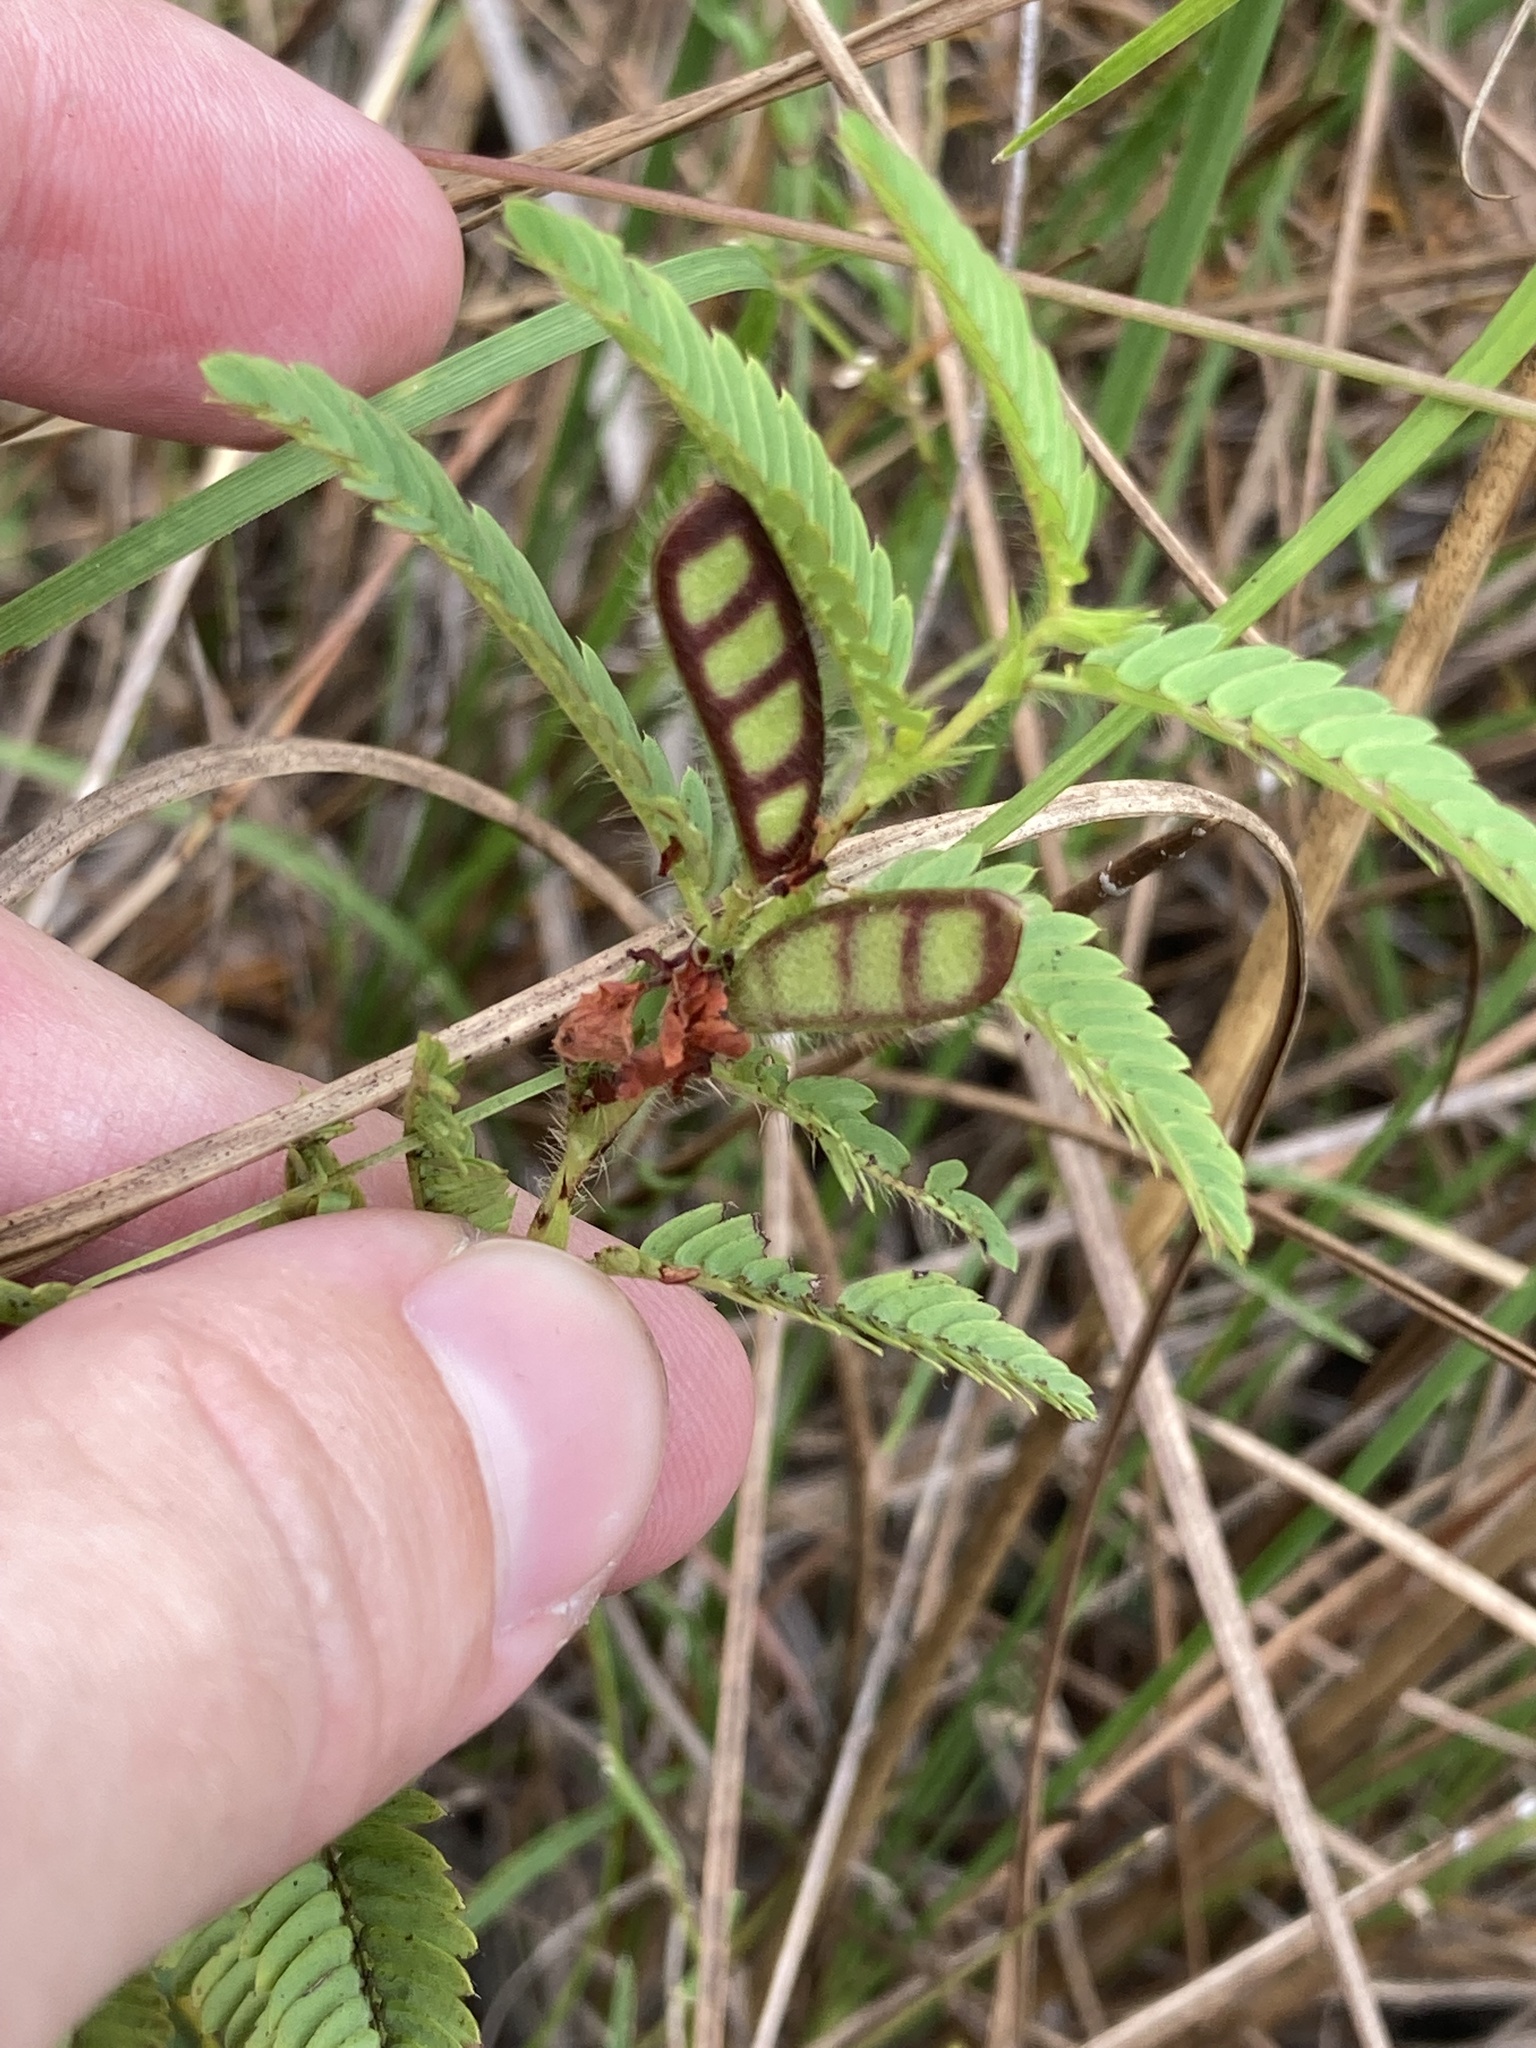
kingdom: Plantae
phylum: Tracheophyta
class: Magnoliopsida
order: Fabales
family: Fabaceae
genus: Chamaecrista
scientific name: Chamaecrista nictitans
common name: Sensitive cassia
